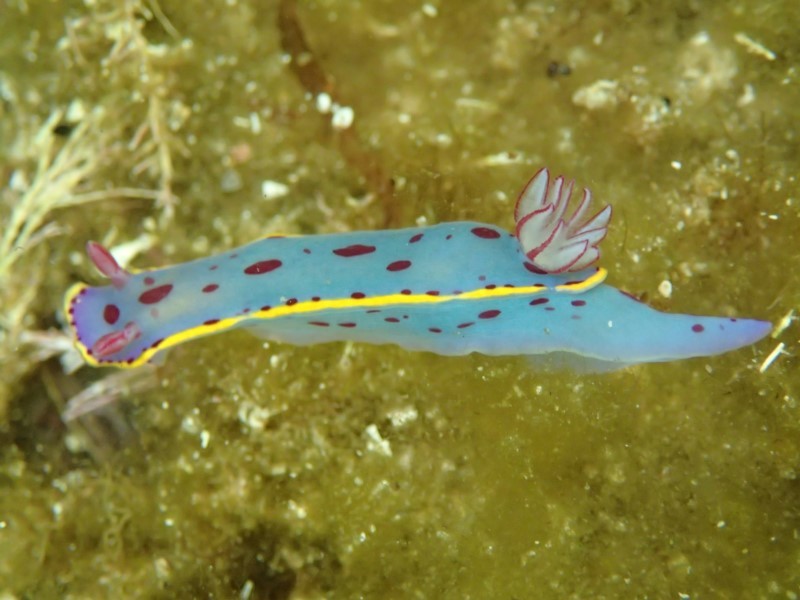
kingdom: Animalia
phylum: Mollusca
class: Gastropoda
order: Nudibranchia
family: Chromodorididae
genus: Hypselodoris
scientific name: Hypselodoris bennetti
